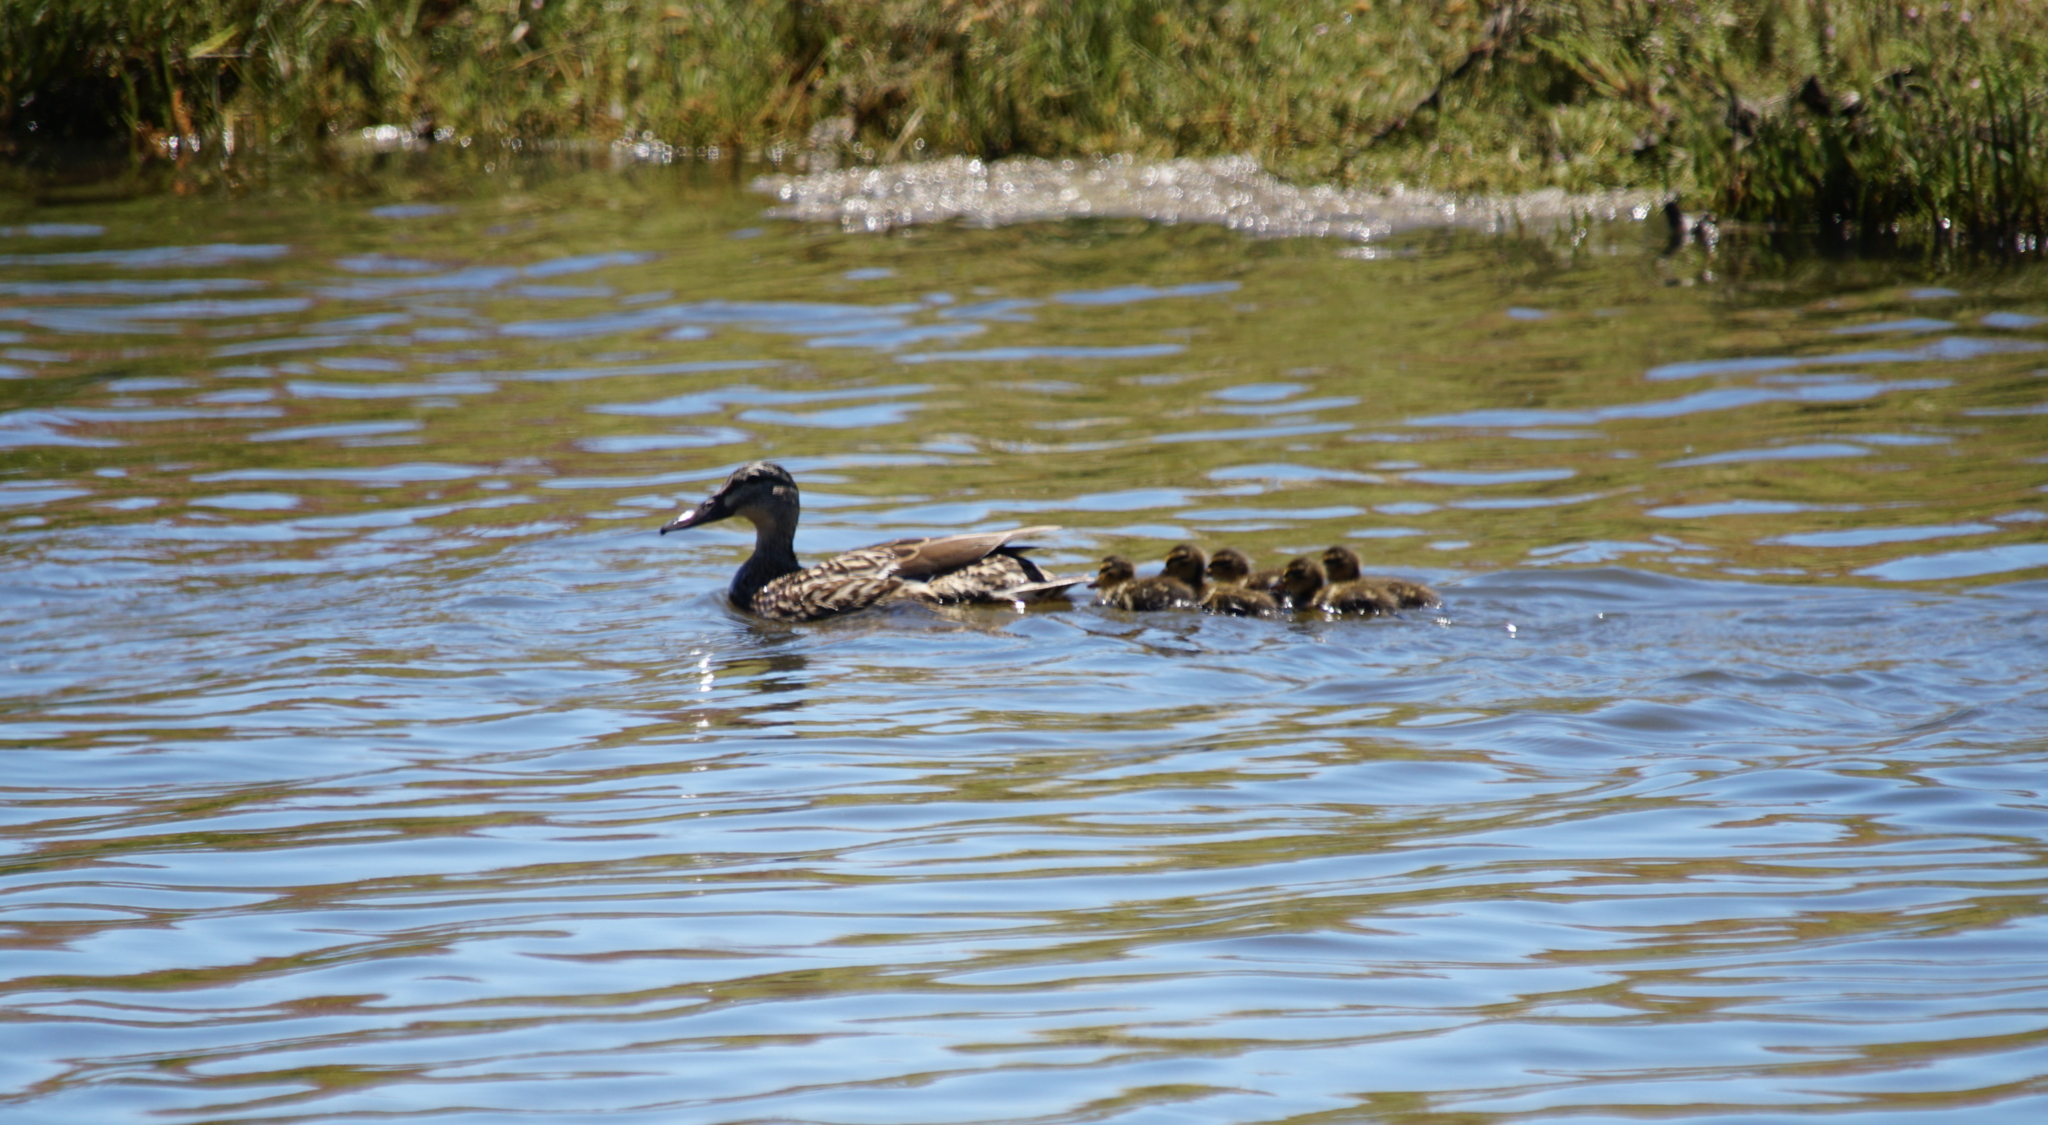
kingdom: Animalia
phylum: Chordata
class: Aves
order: Anseriformes
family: Anatidae
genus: Anas
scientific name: Anas platyrhynchos
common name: Mallard
